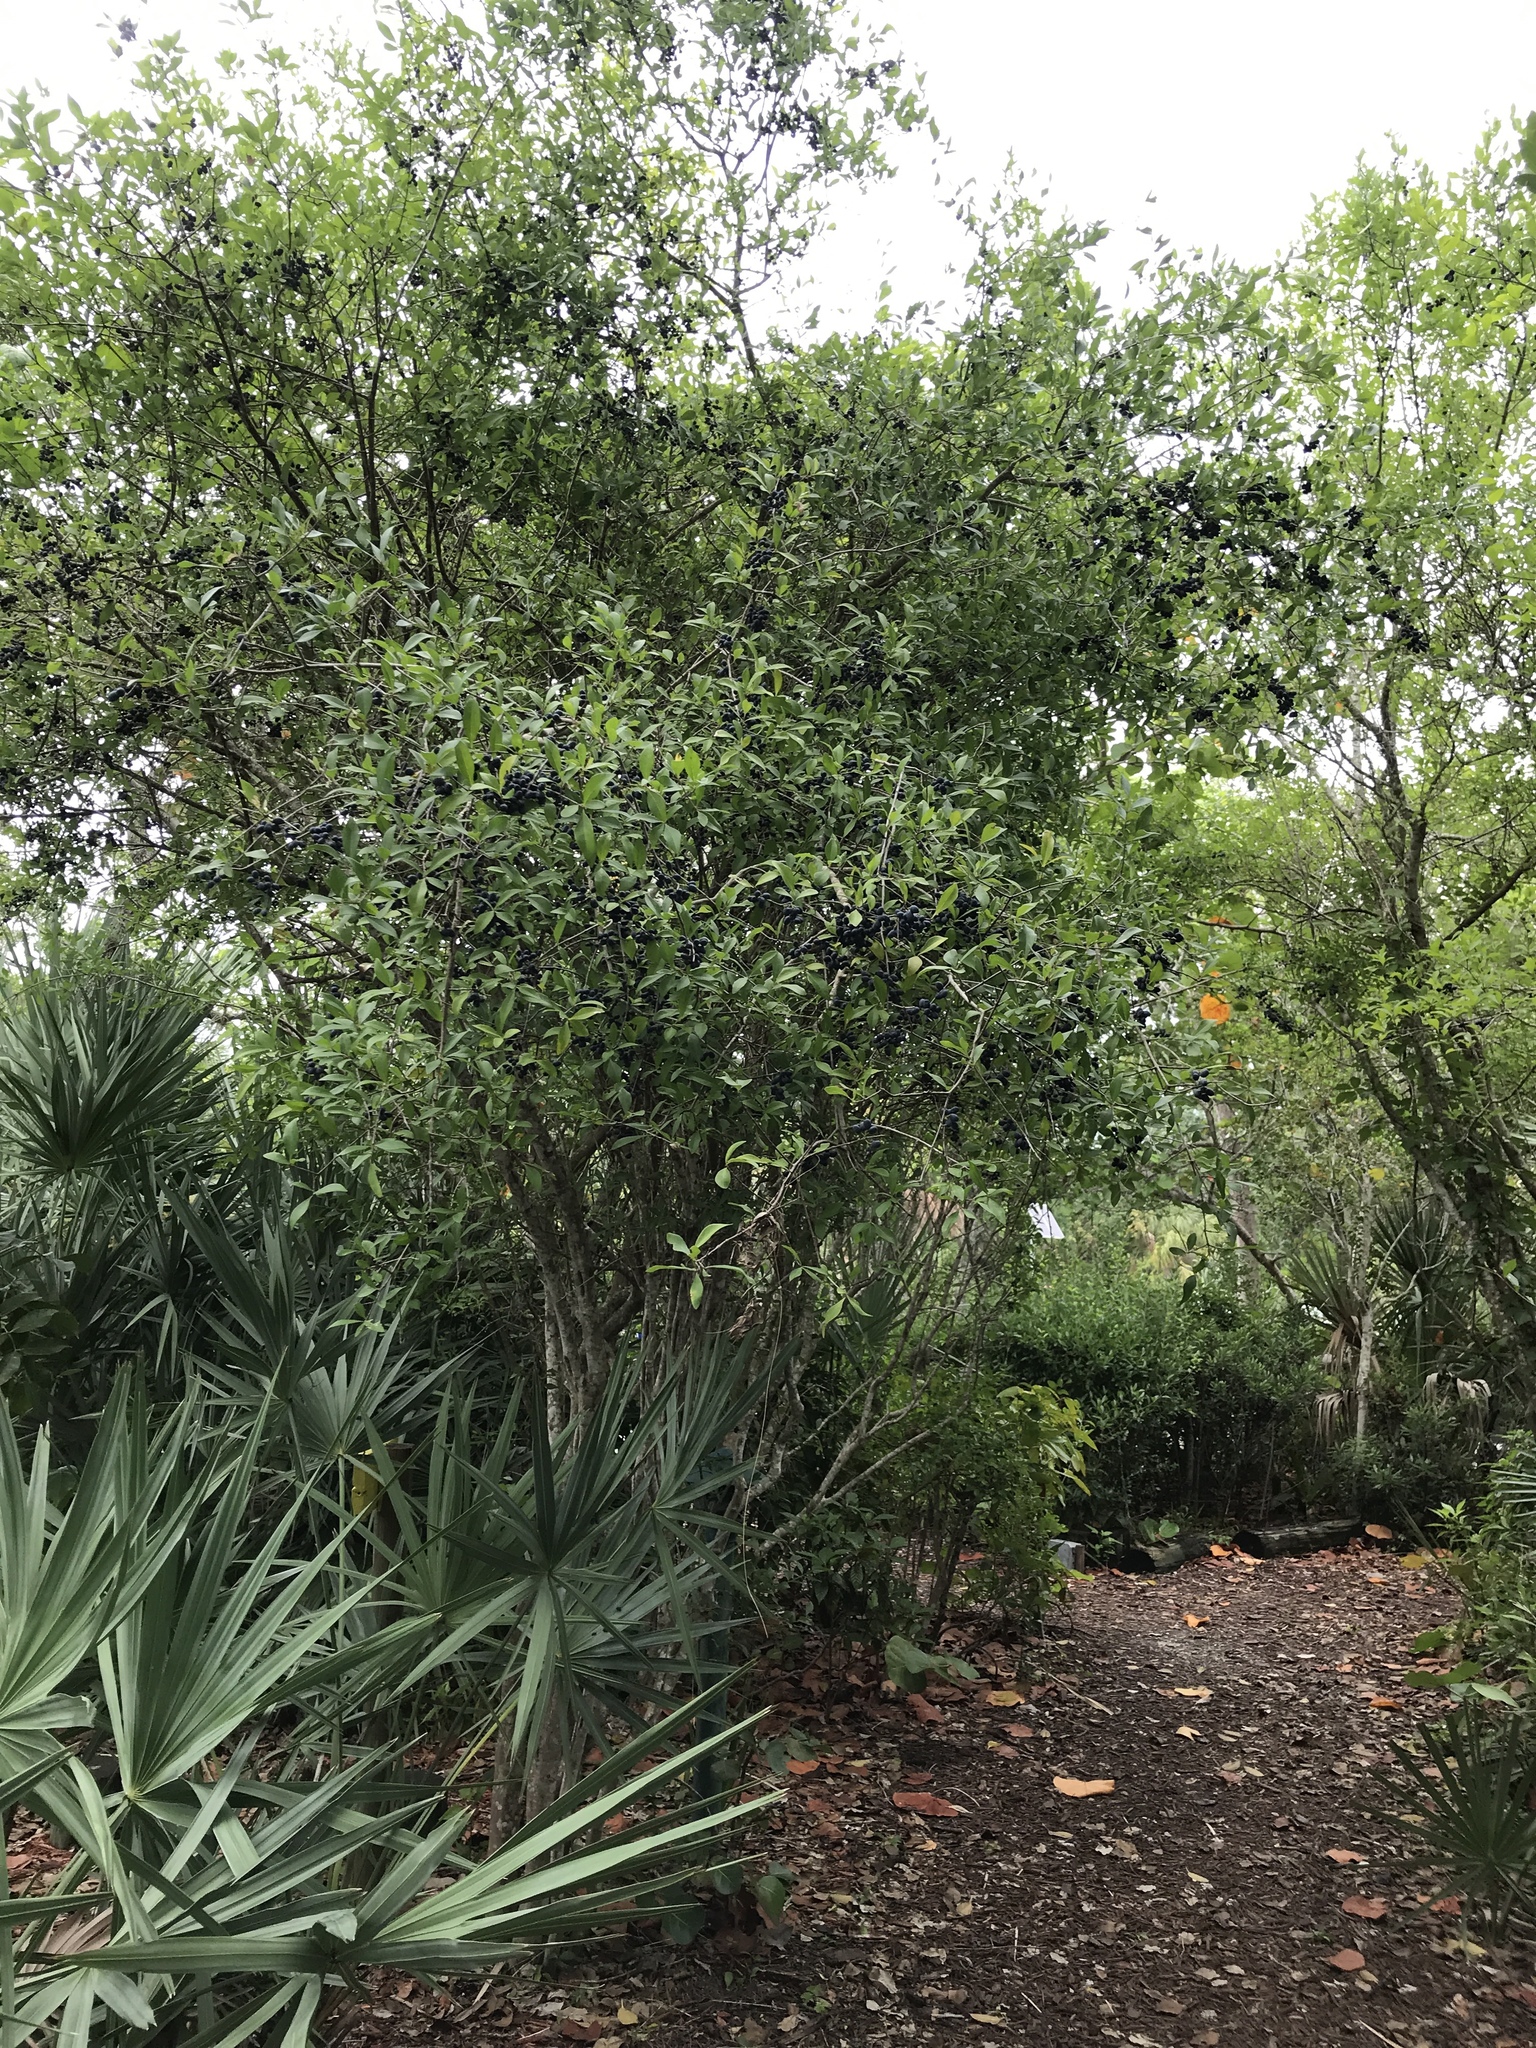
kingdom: Plantae
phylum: Tracheophyta
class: Magnoliopsida
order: Lamiales
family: Oleaceae
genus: Forestiera
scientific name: Forestiera segregata
